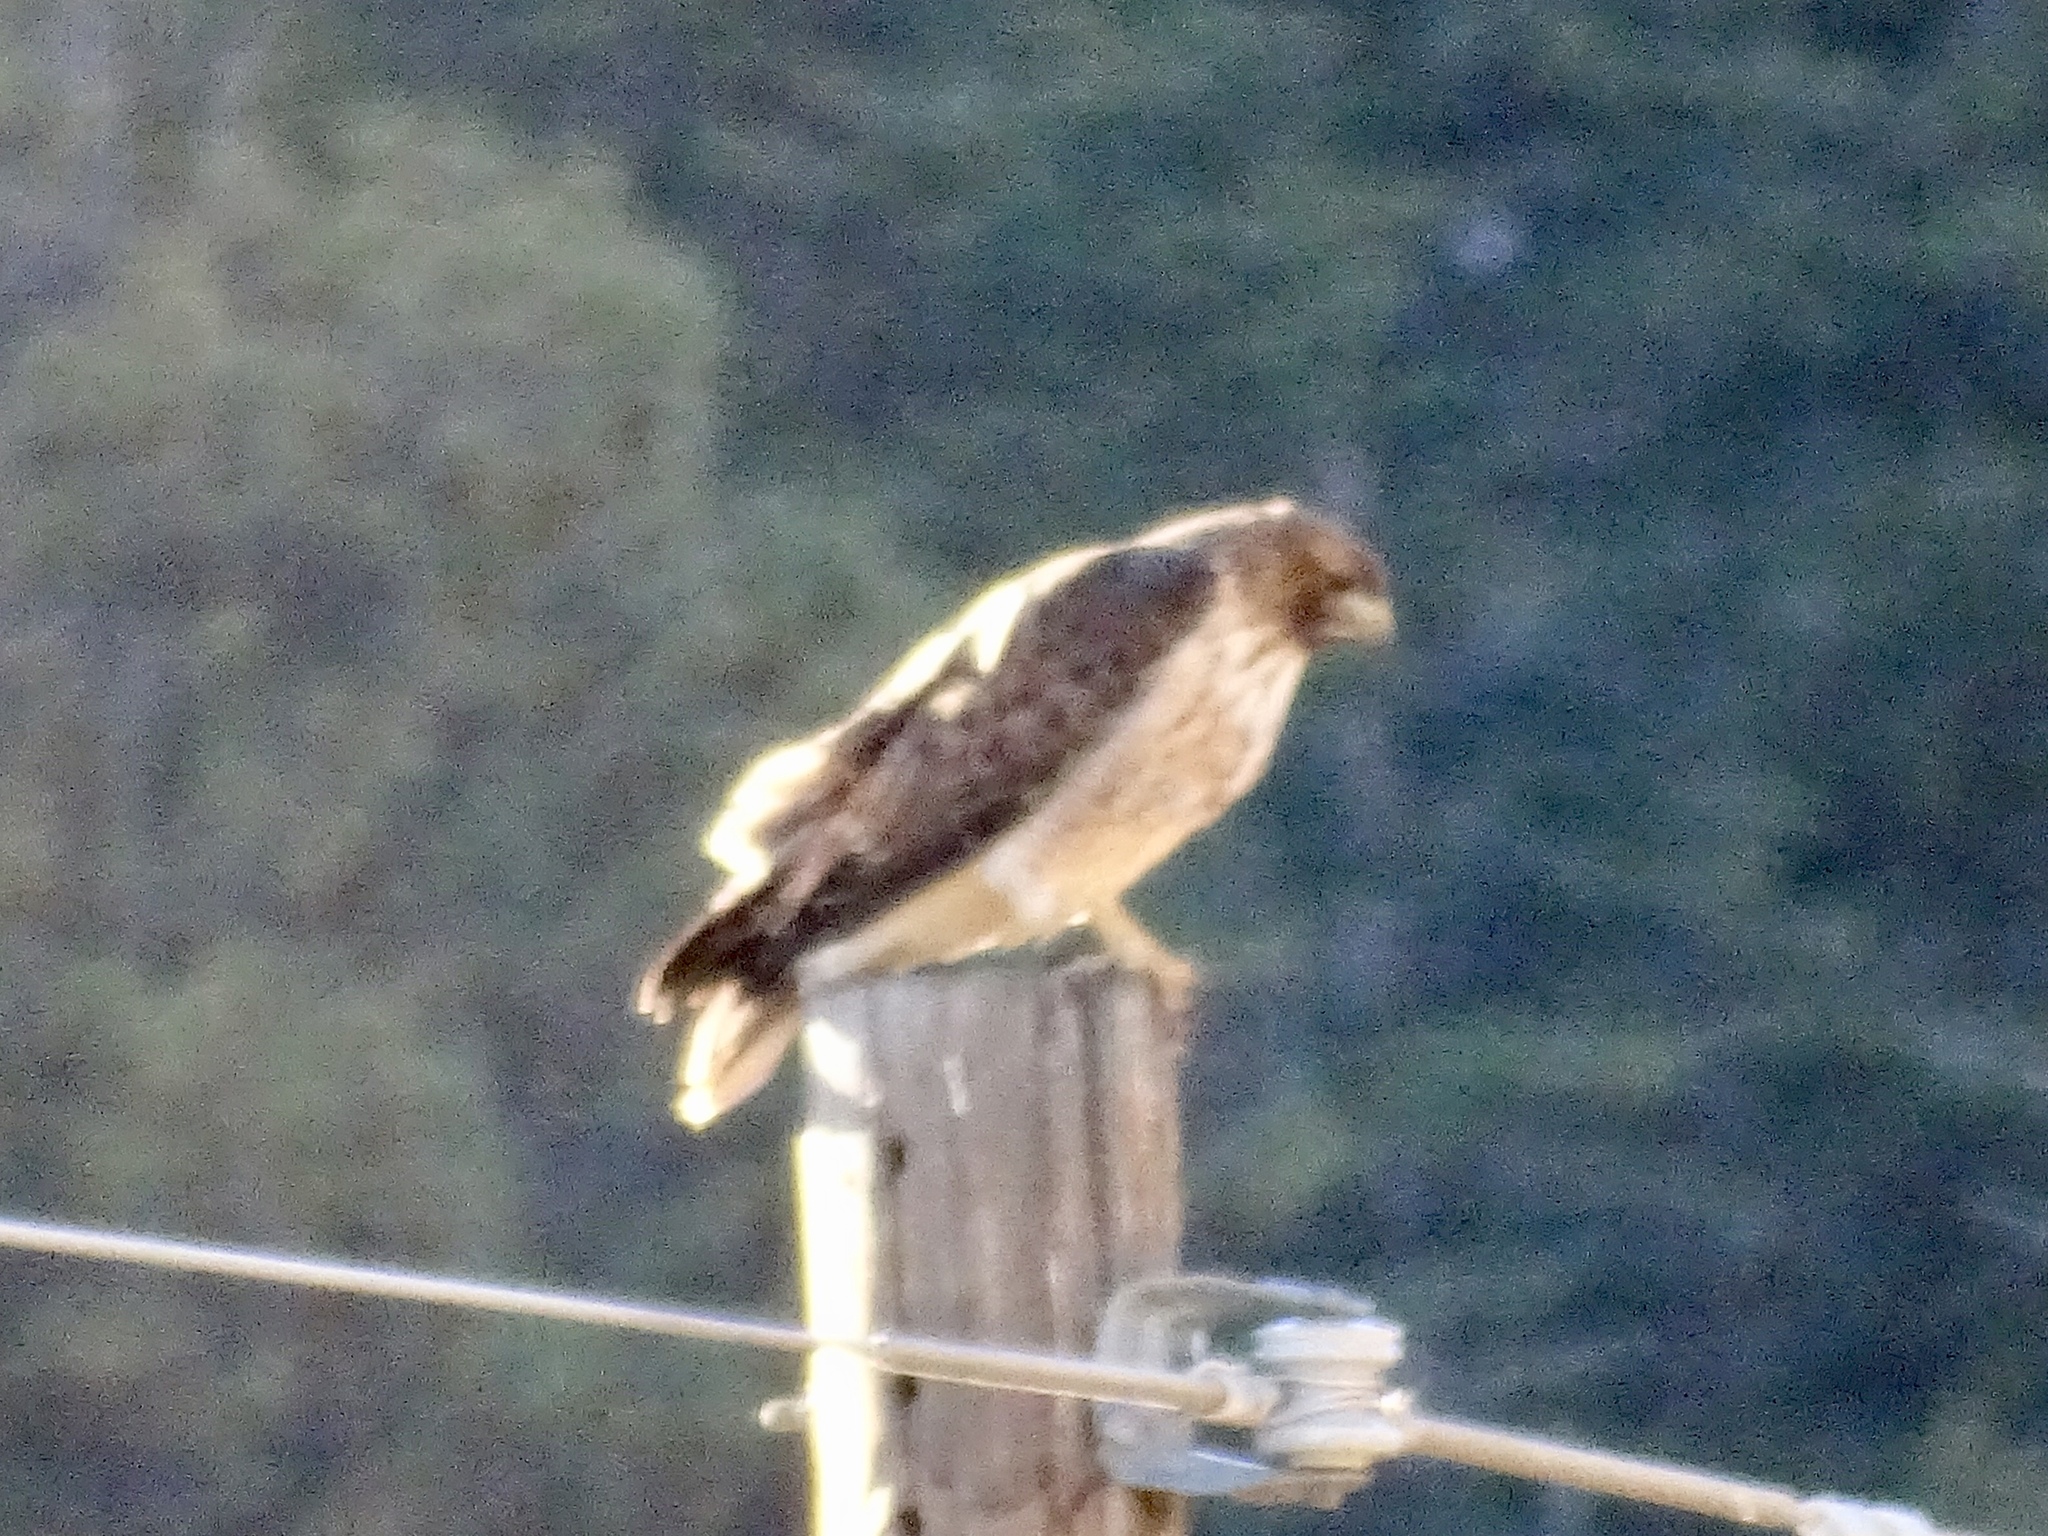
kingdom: Animalia
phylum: Chordata
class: Aves
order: Accipitriformes
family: Accipitridae
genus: Buteo
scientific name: Buteo jamaicensis
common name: Red-tailed hawk
